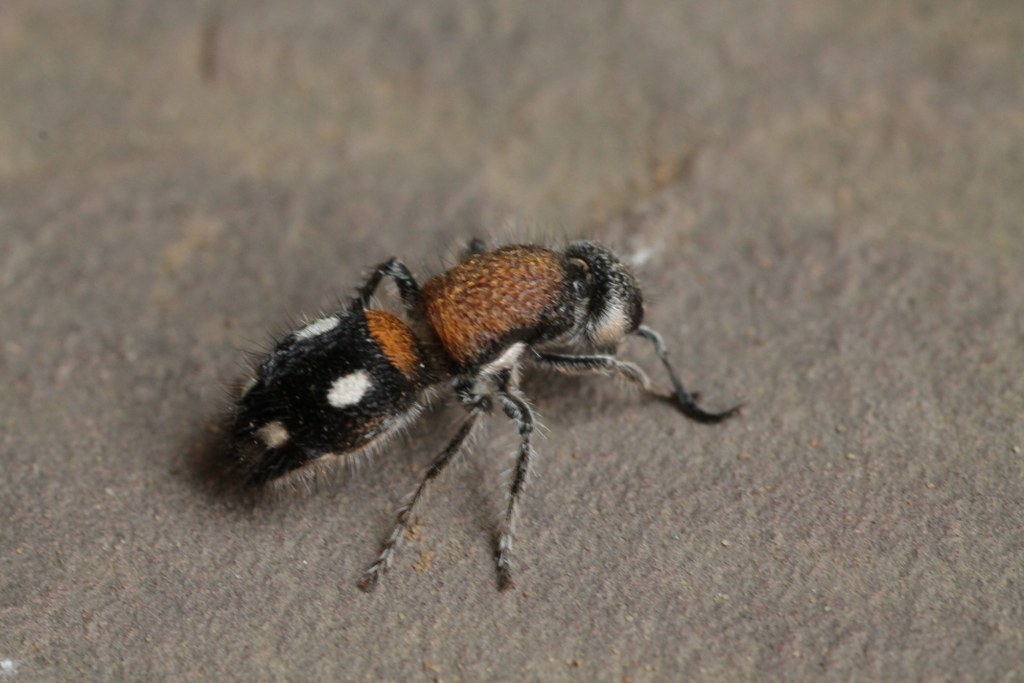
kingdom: Animalia
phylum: Arthropoda
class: Insecta
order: Hymenoptera
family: Mutillidae
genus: Kurzenkotilla
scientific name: Kurzenkotilla niveosignata
